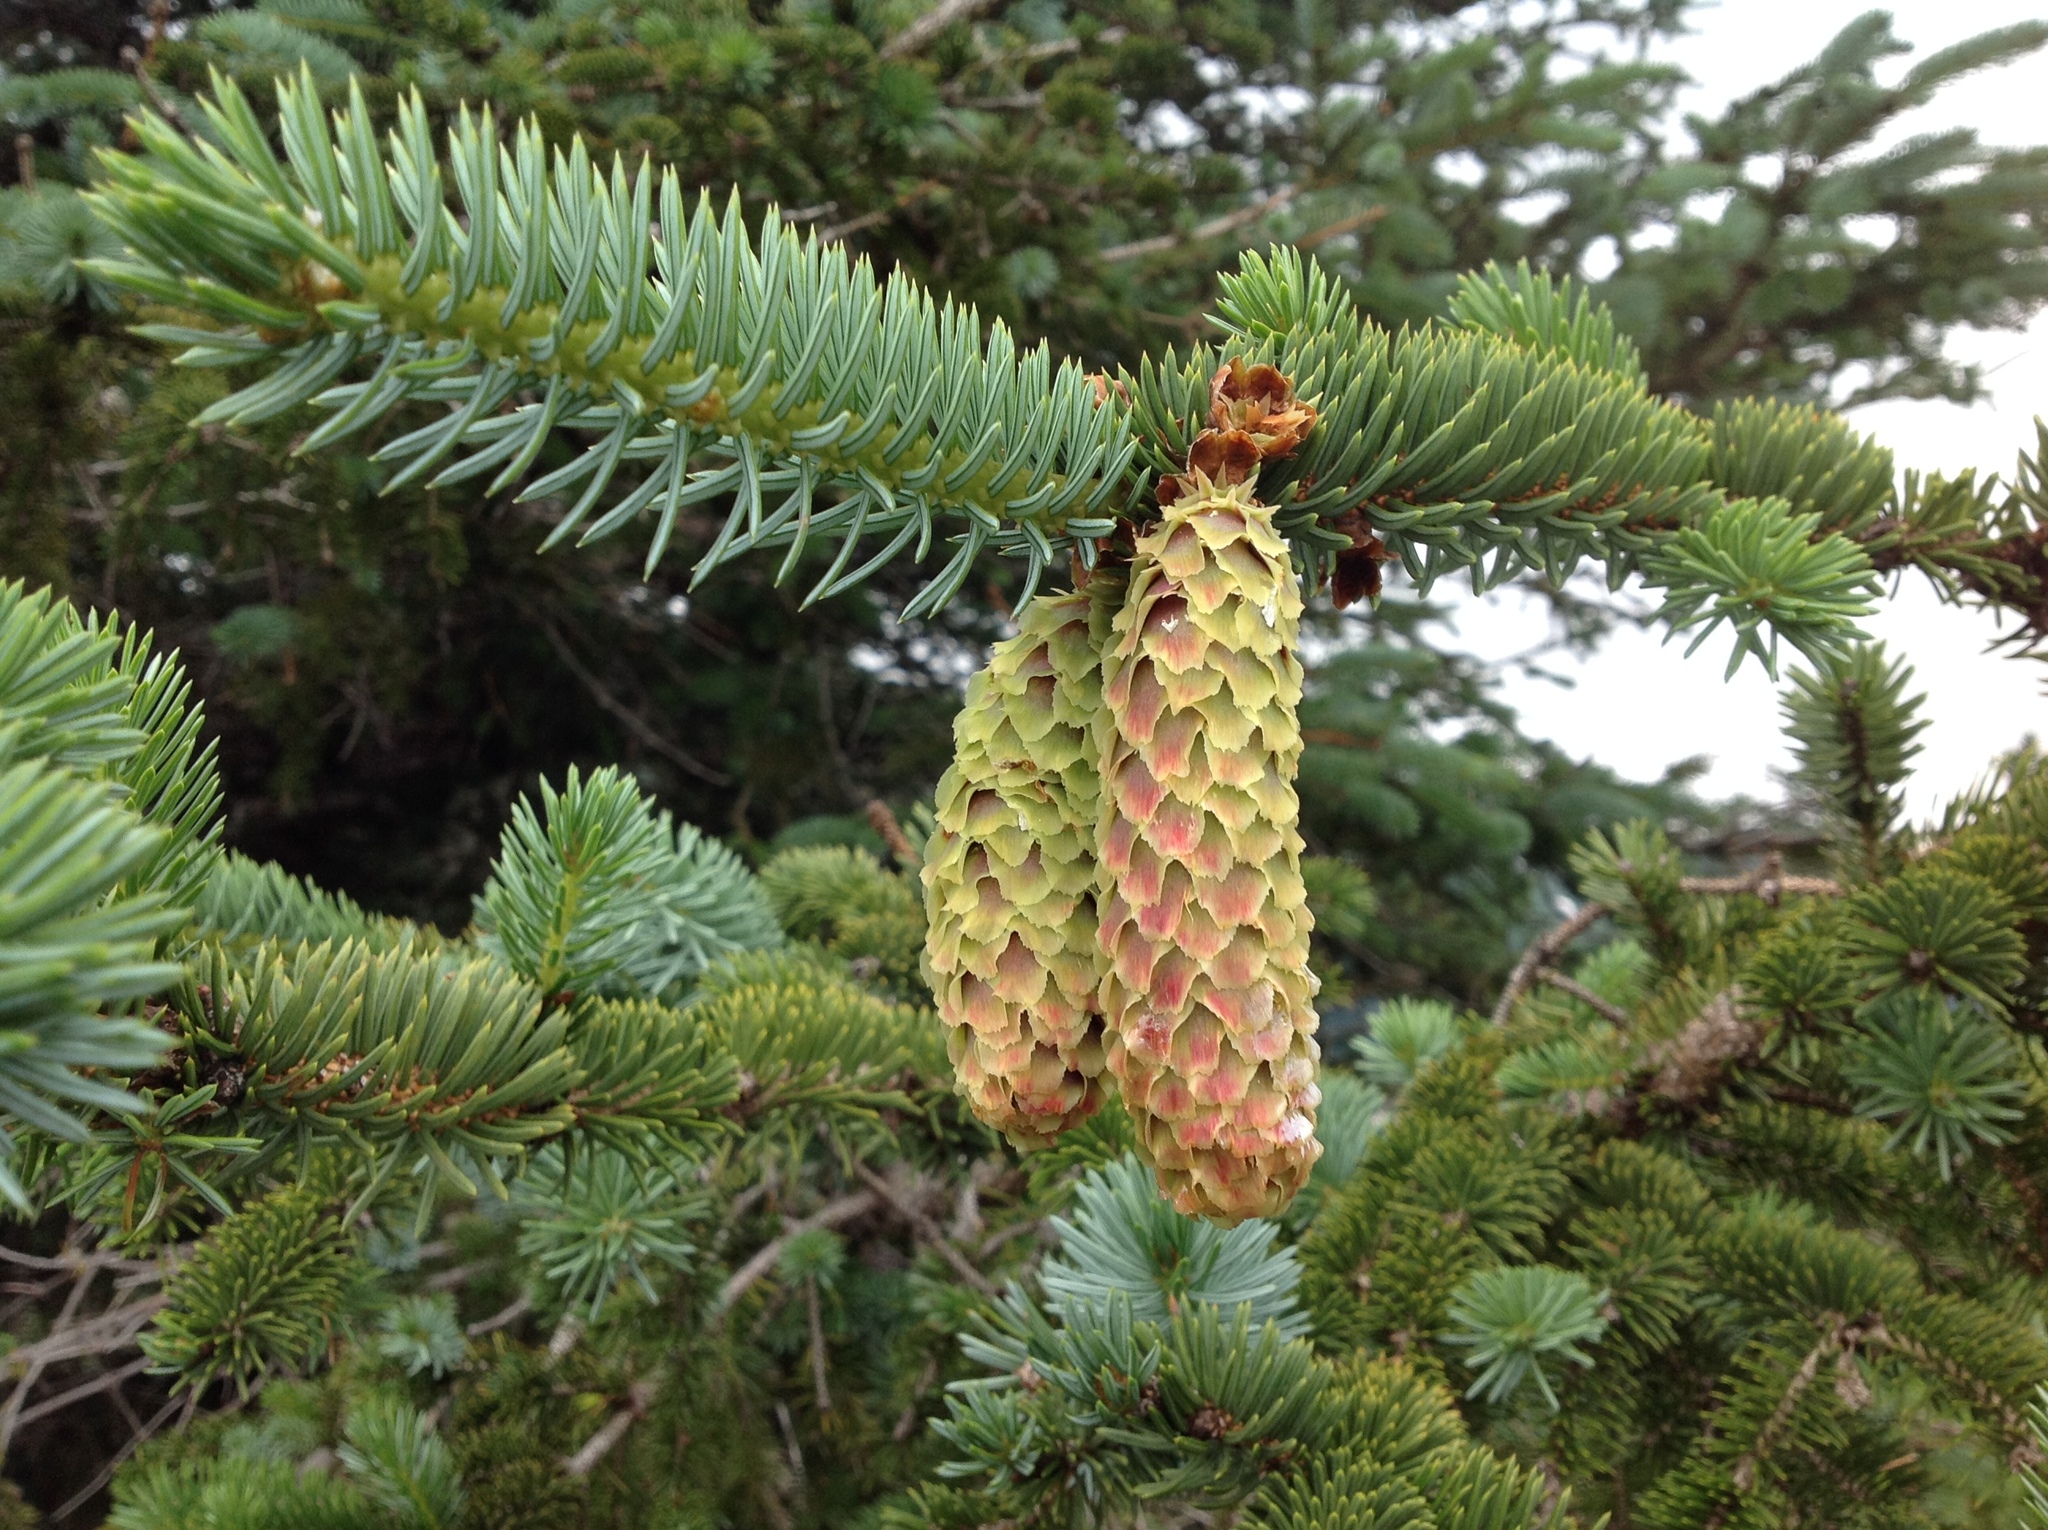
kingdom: Plantae
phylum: Tracheophyta
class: Pinopsida
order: Pinales
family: Pinaceae
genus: Picea
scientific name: Picea sitchensis
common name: Sitka spruce
